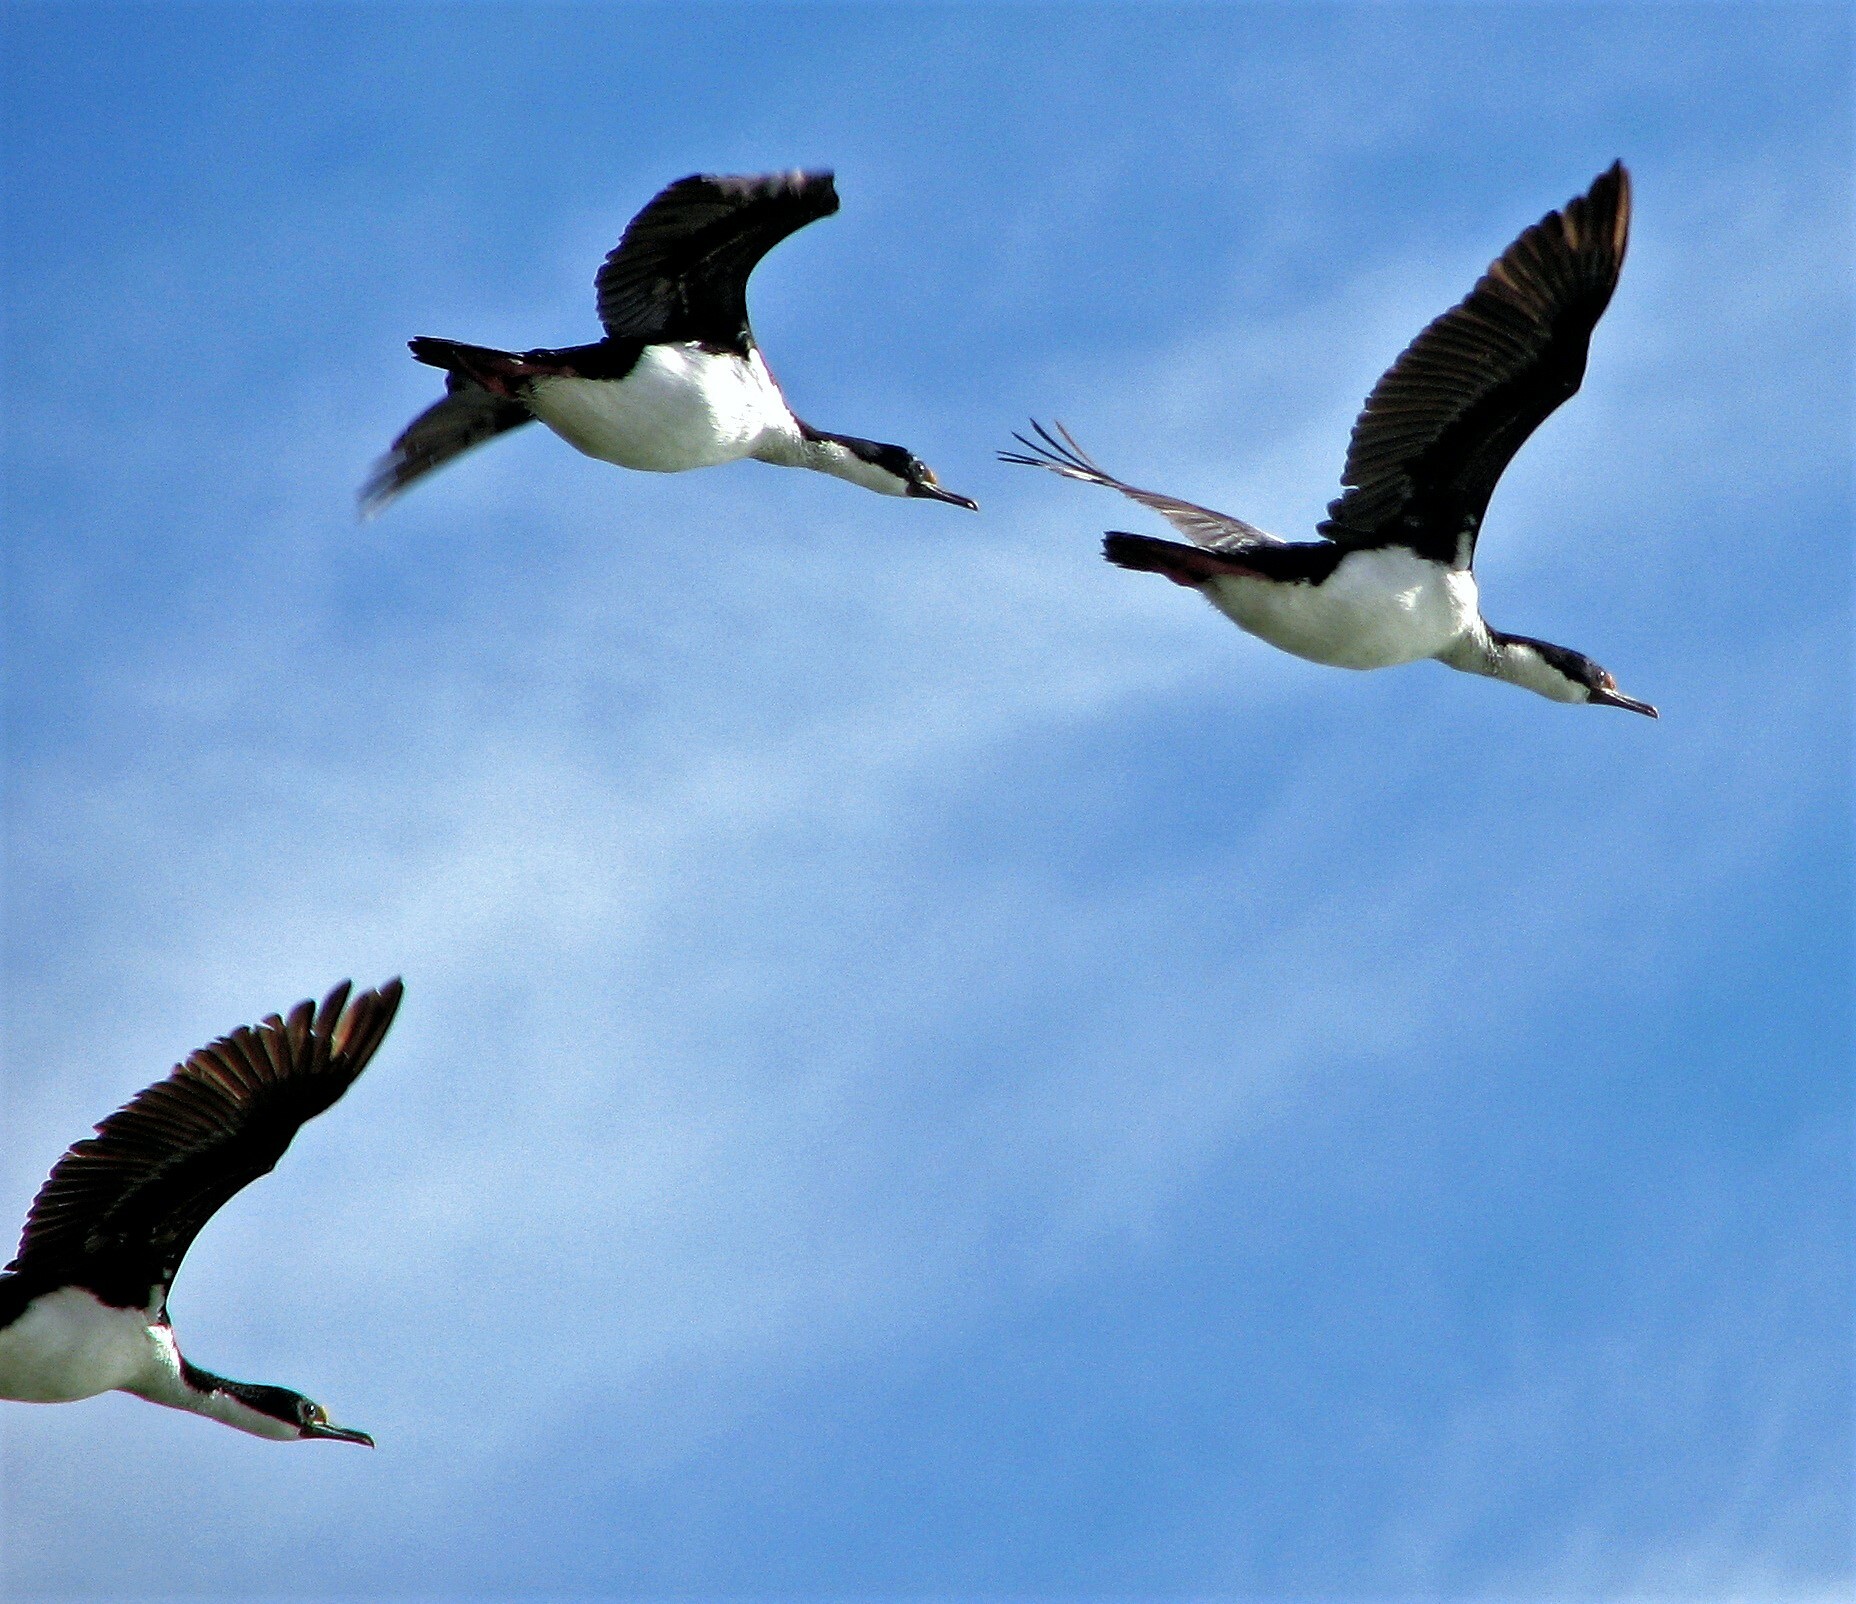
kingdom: Animalia
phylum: Chordata
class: Aves
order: Suliformes
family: Phalacrocoracidae
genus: Leucocarbo
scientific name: Leucocarbo atriceps
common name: Imperial shag
